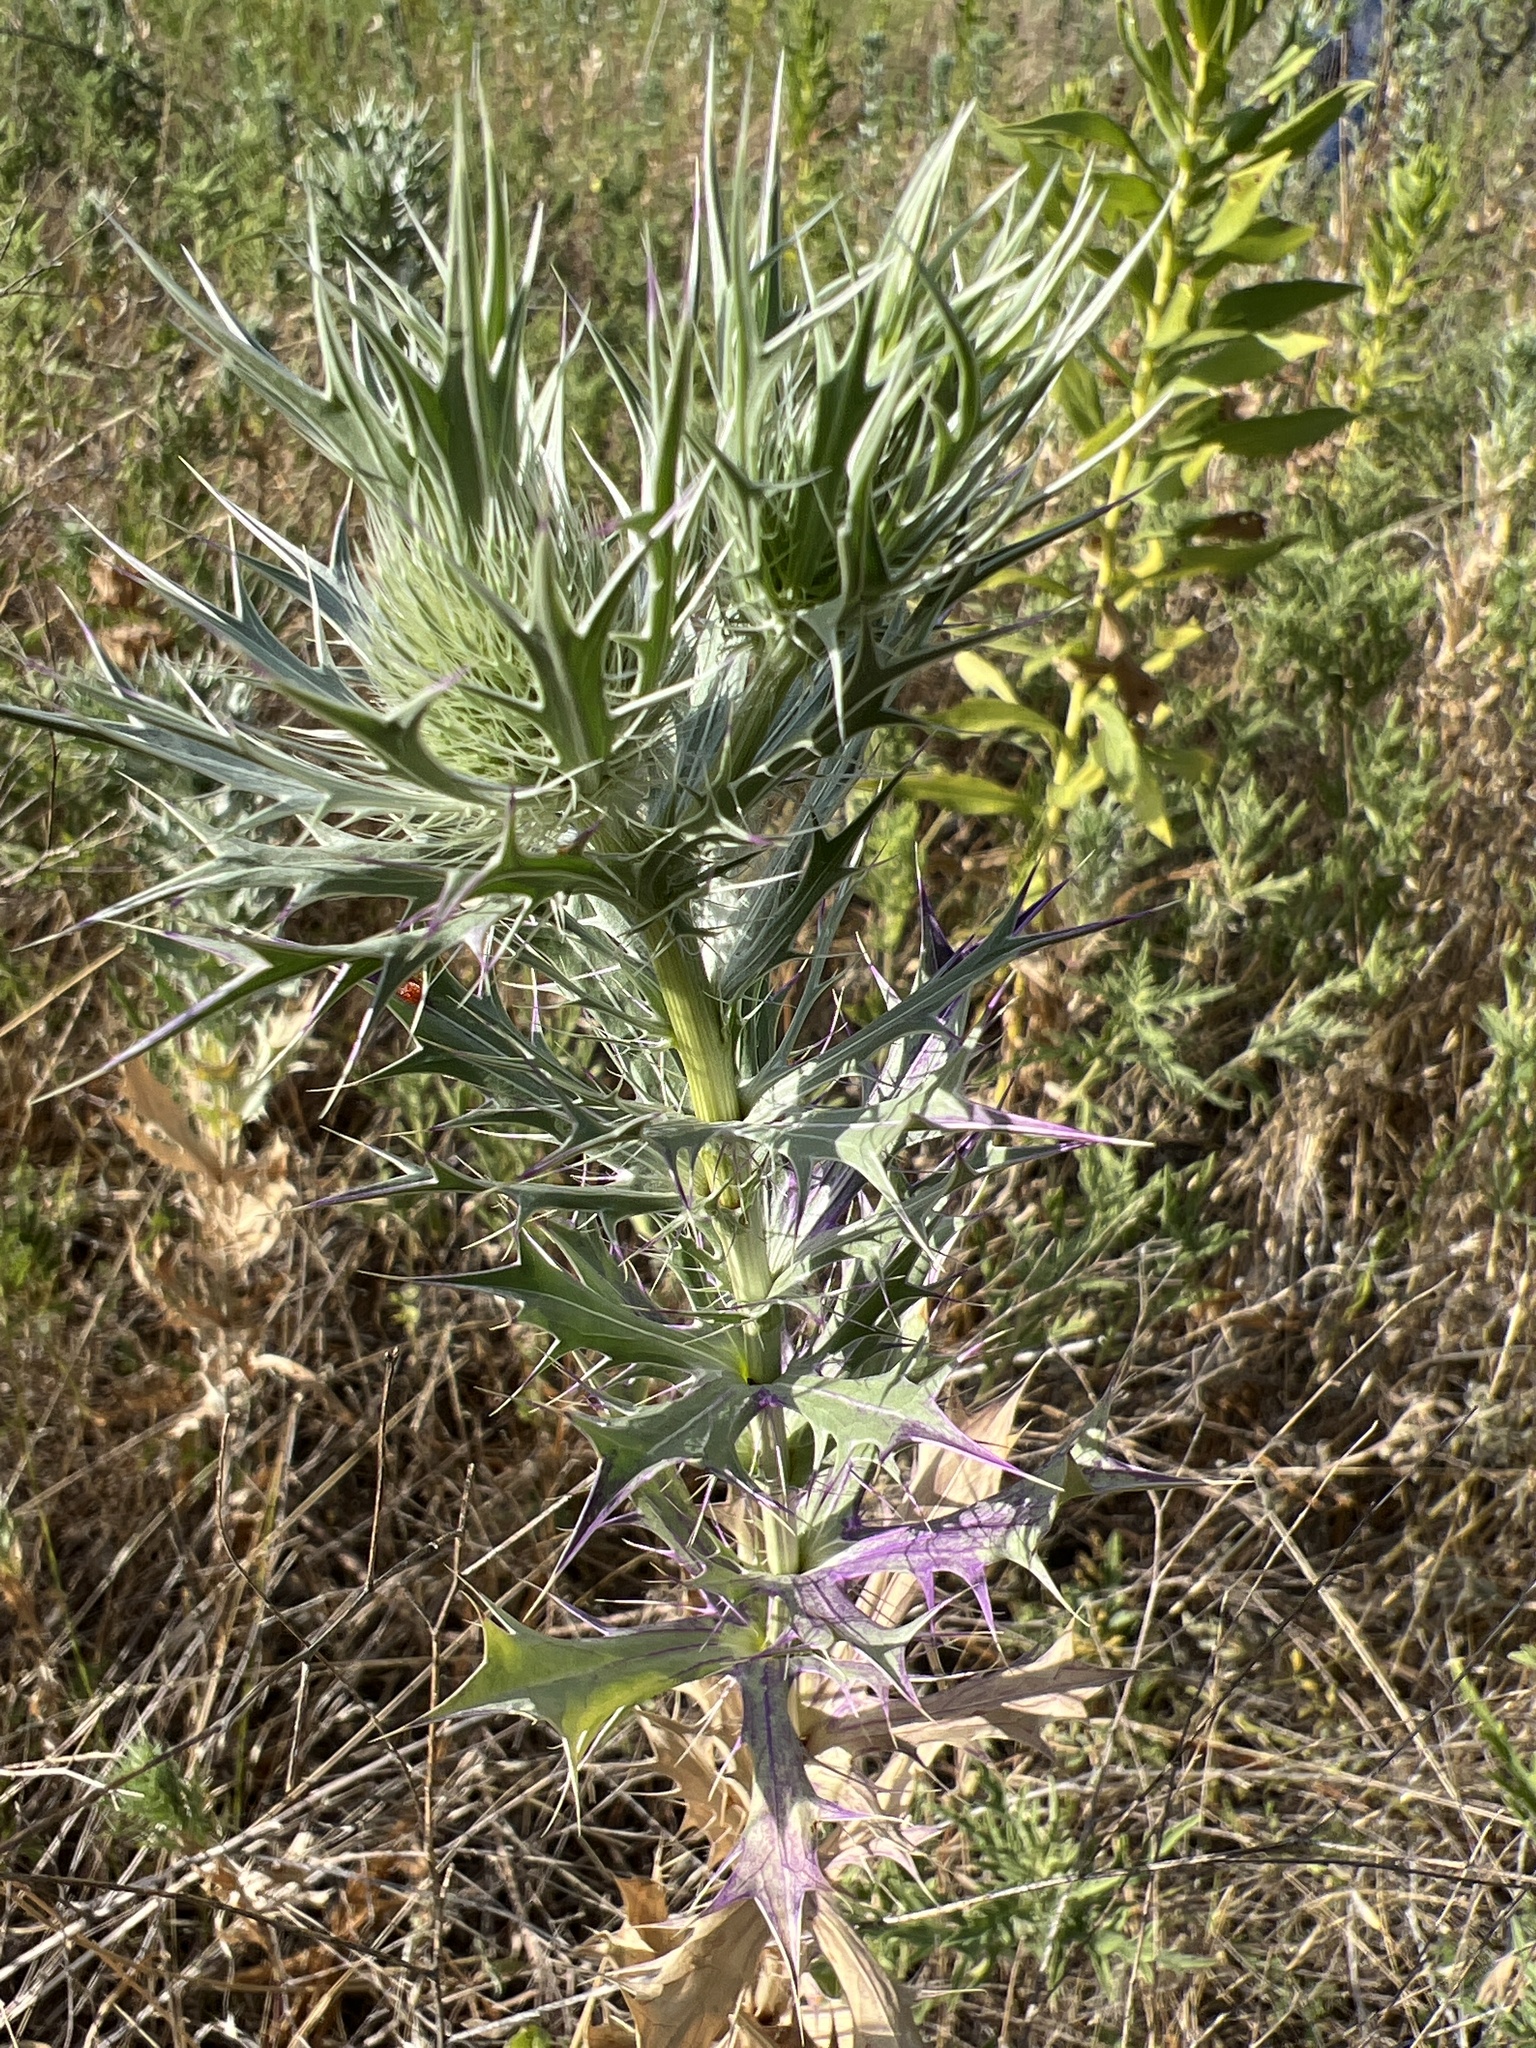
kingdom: Plantae
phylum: Tracheophyta
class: Magnoliopsida
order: Apiales
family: Apiaceae
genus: Eryngium
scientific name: Eryngium leavenworthii
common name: Leavenworth's eryngo
